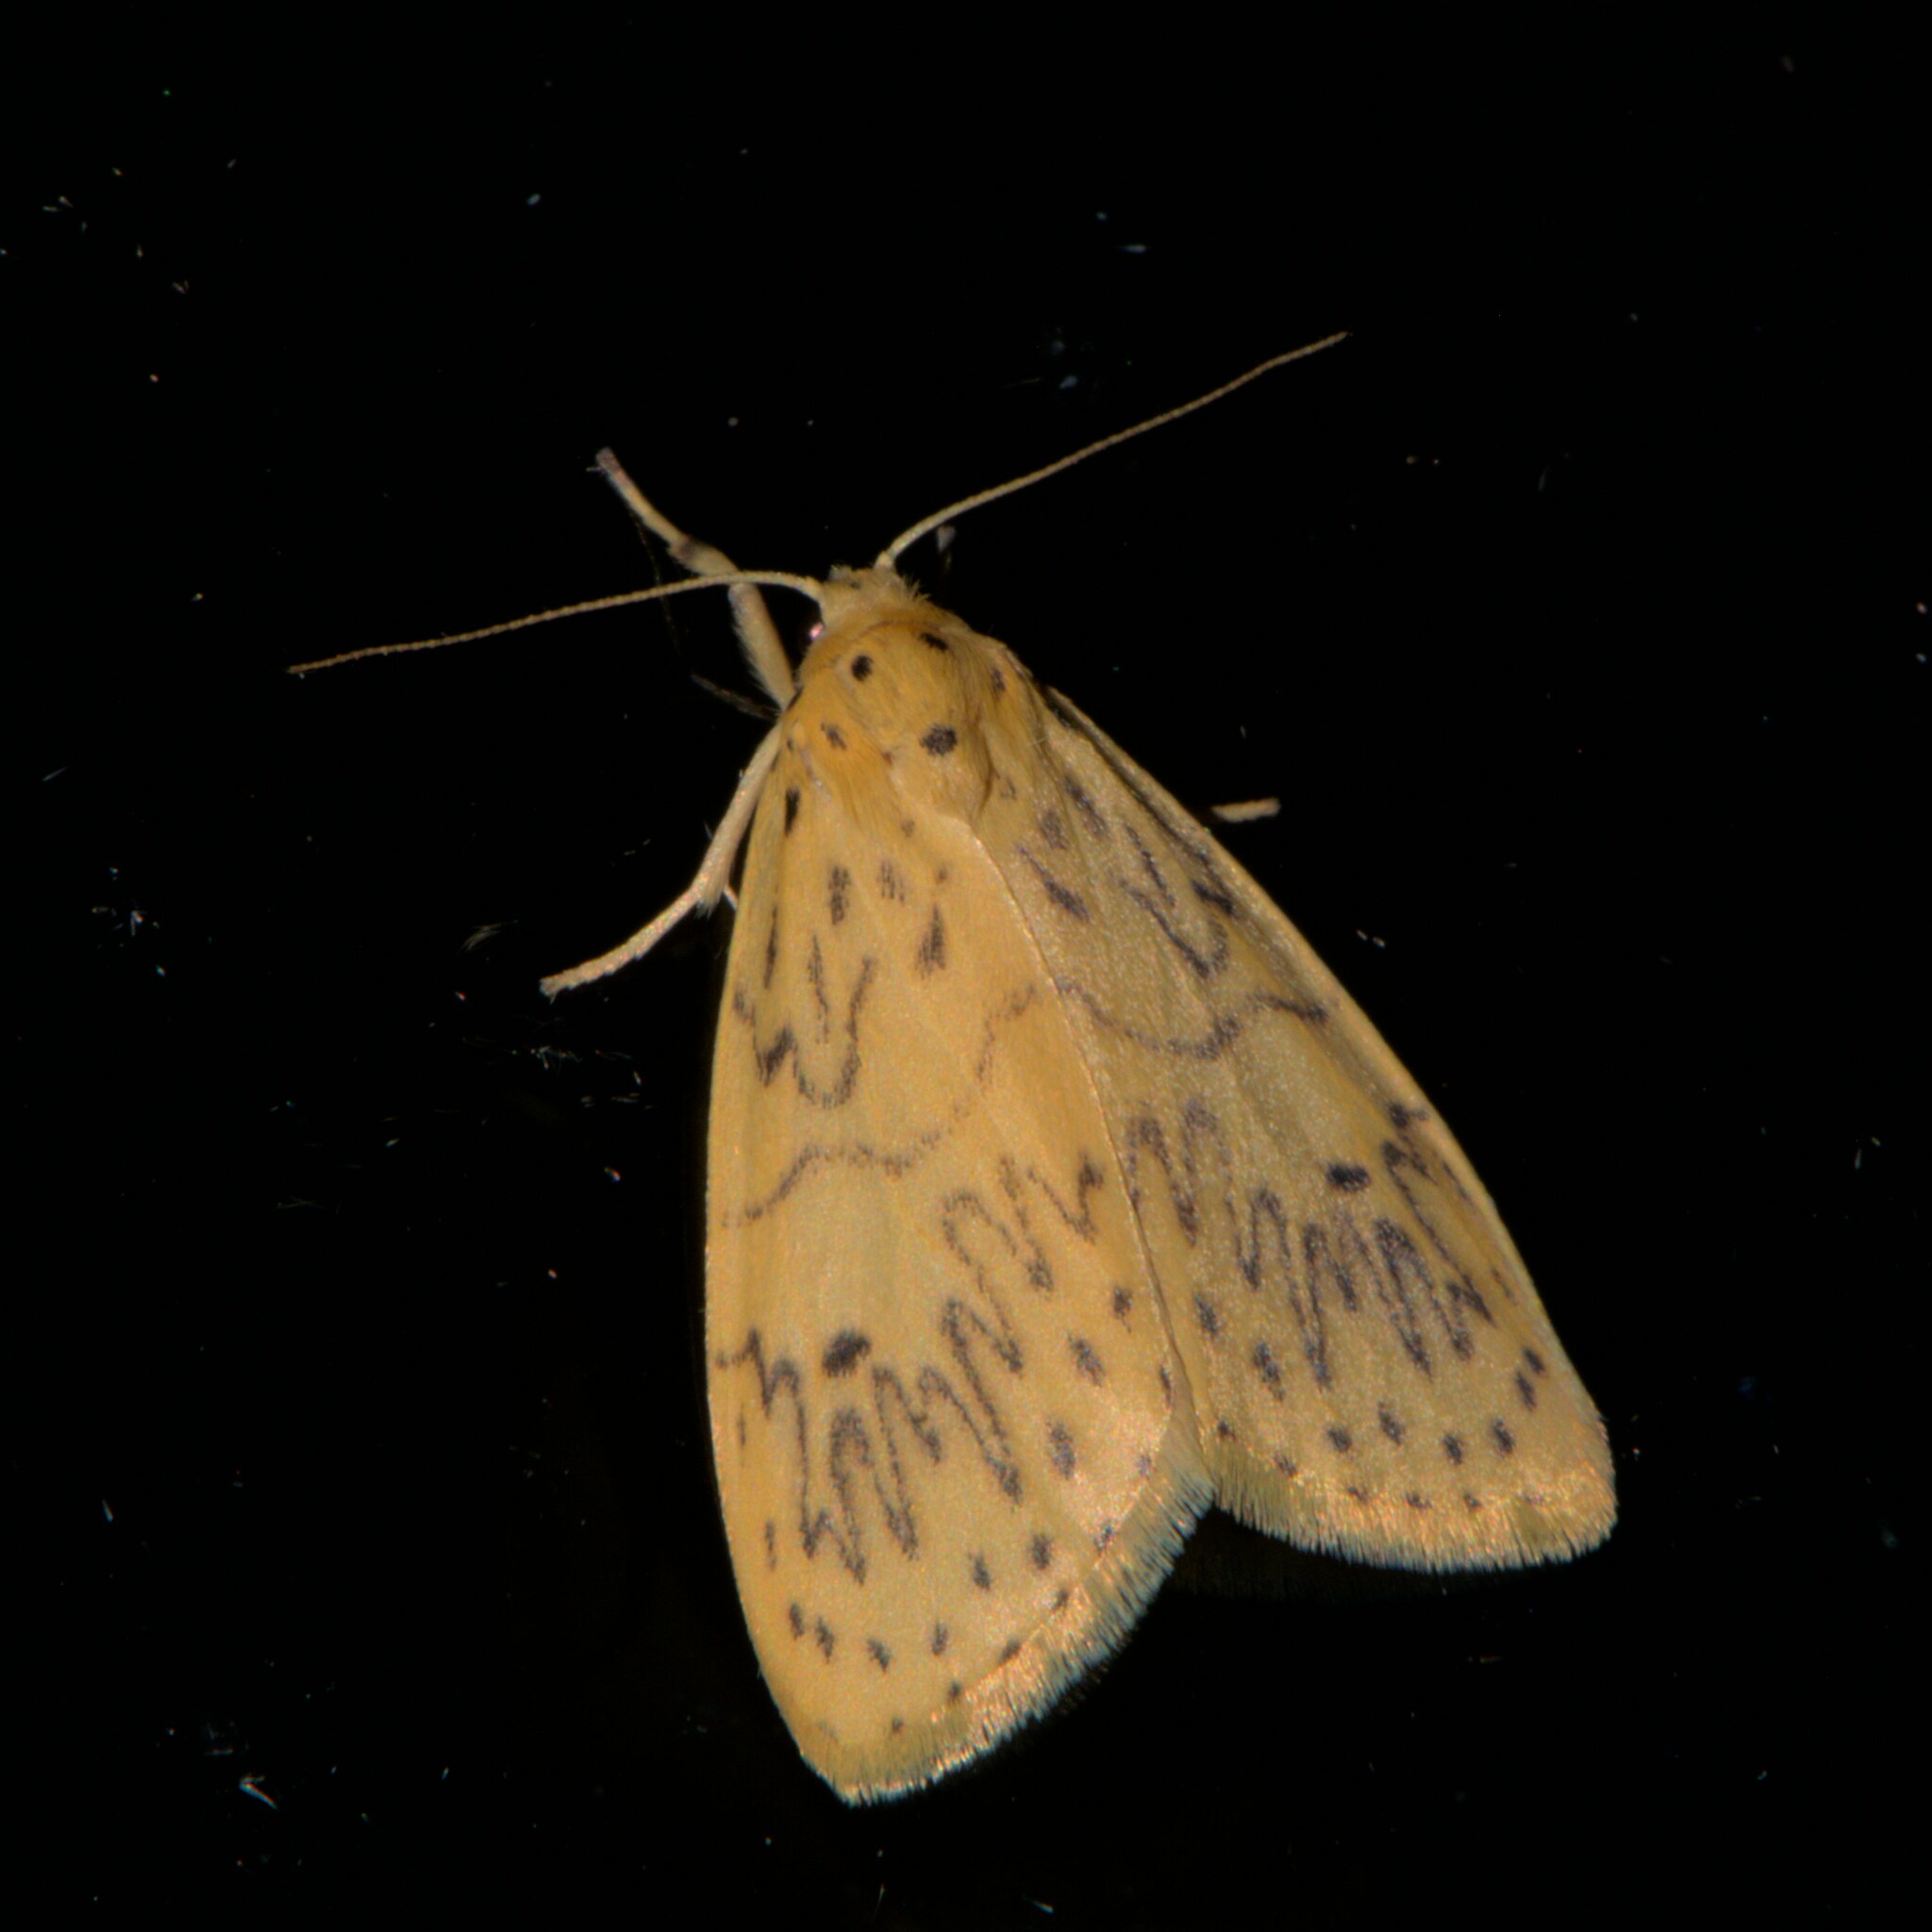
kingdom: Animalia
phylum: Arthropoda
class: Insecta
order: Lepidoptera
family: Erebidae
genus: Miltochrista
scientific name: Miltochrista undulosa
